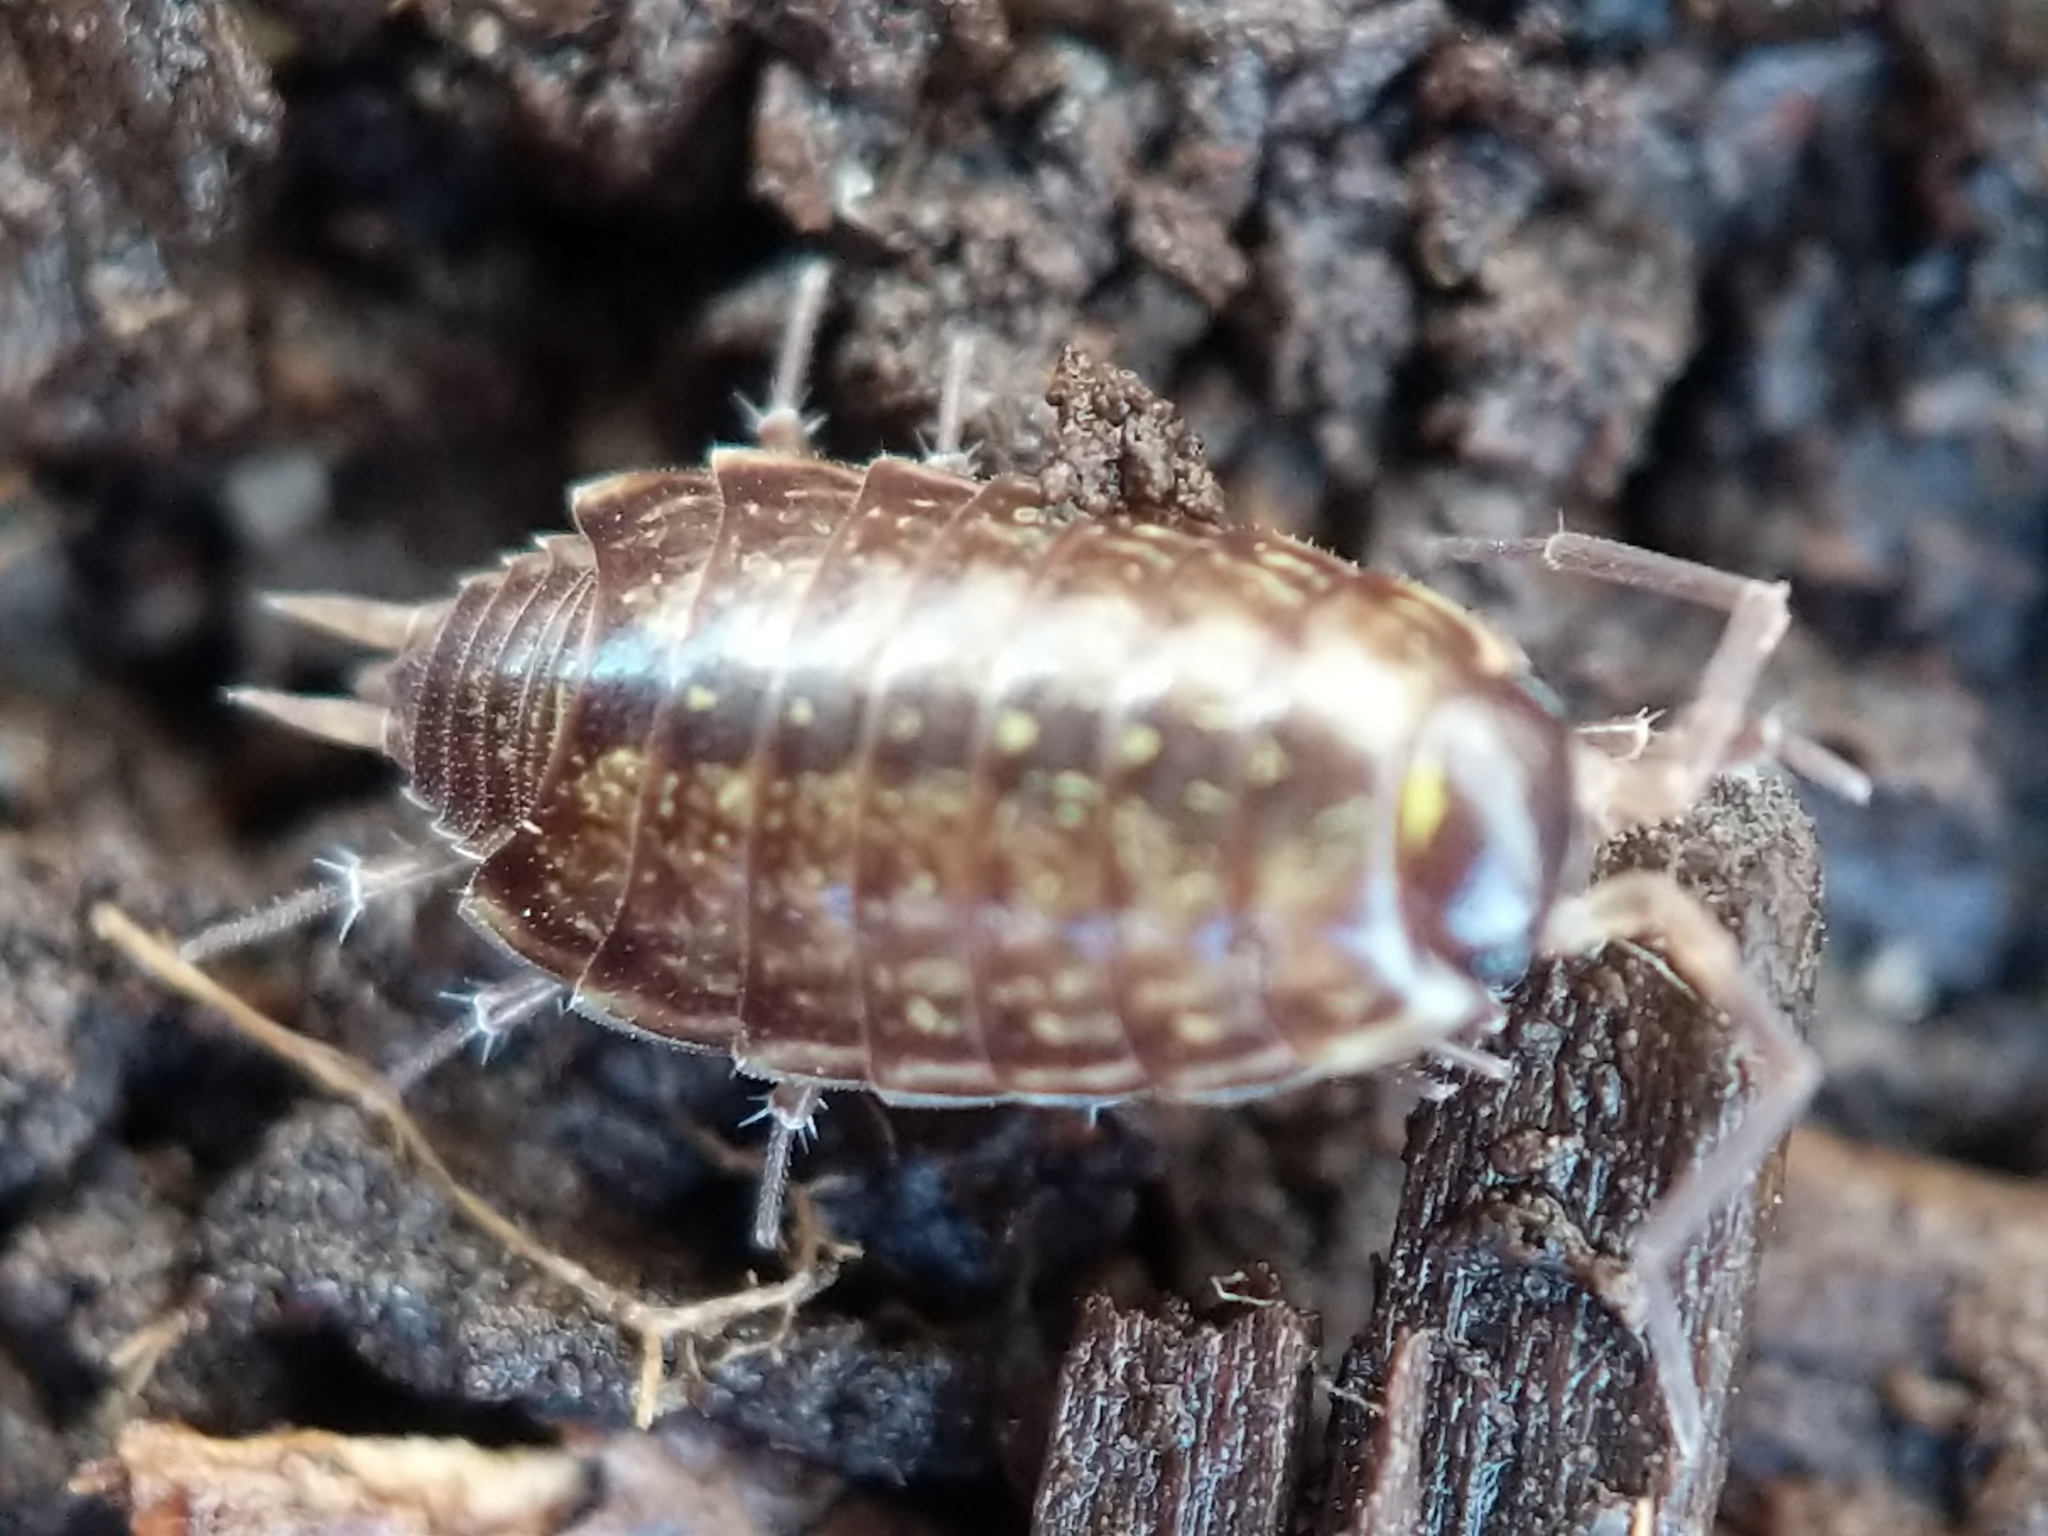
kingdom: Animalia
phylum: Arthropoda
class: Malacostraca
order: Isopoda
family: Philosciidae
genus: Philoscia
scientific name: Philoscia muscorum
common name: Common striped woodlouse
